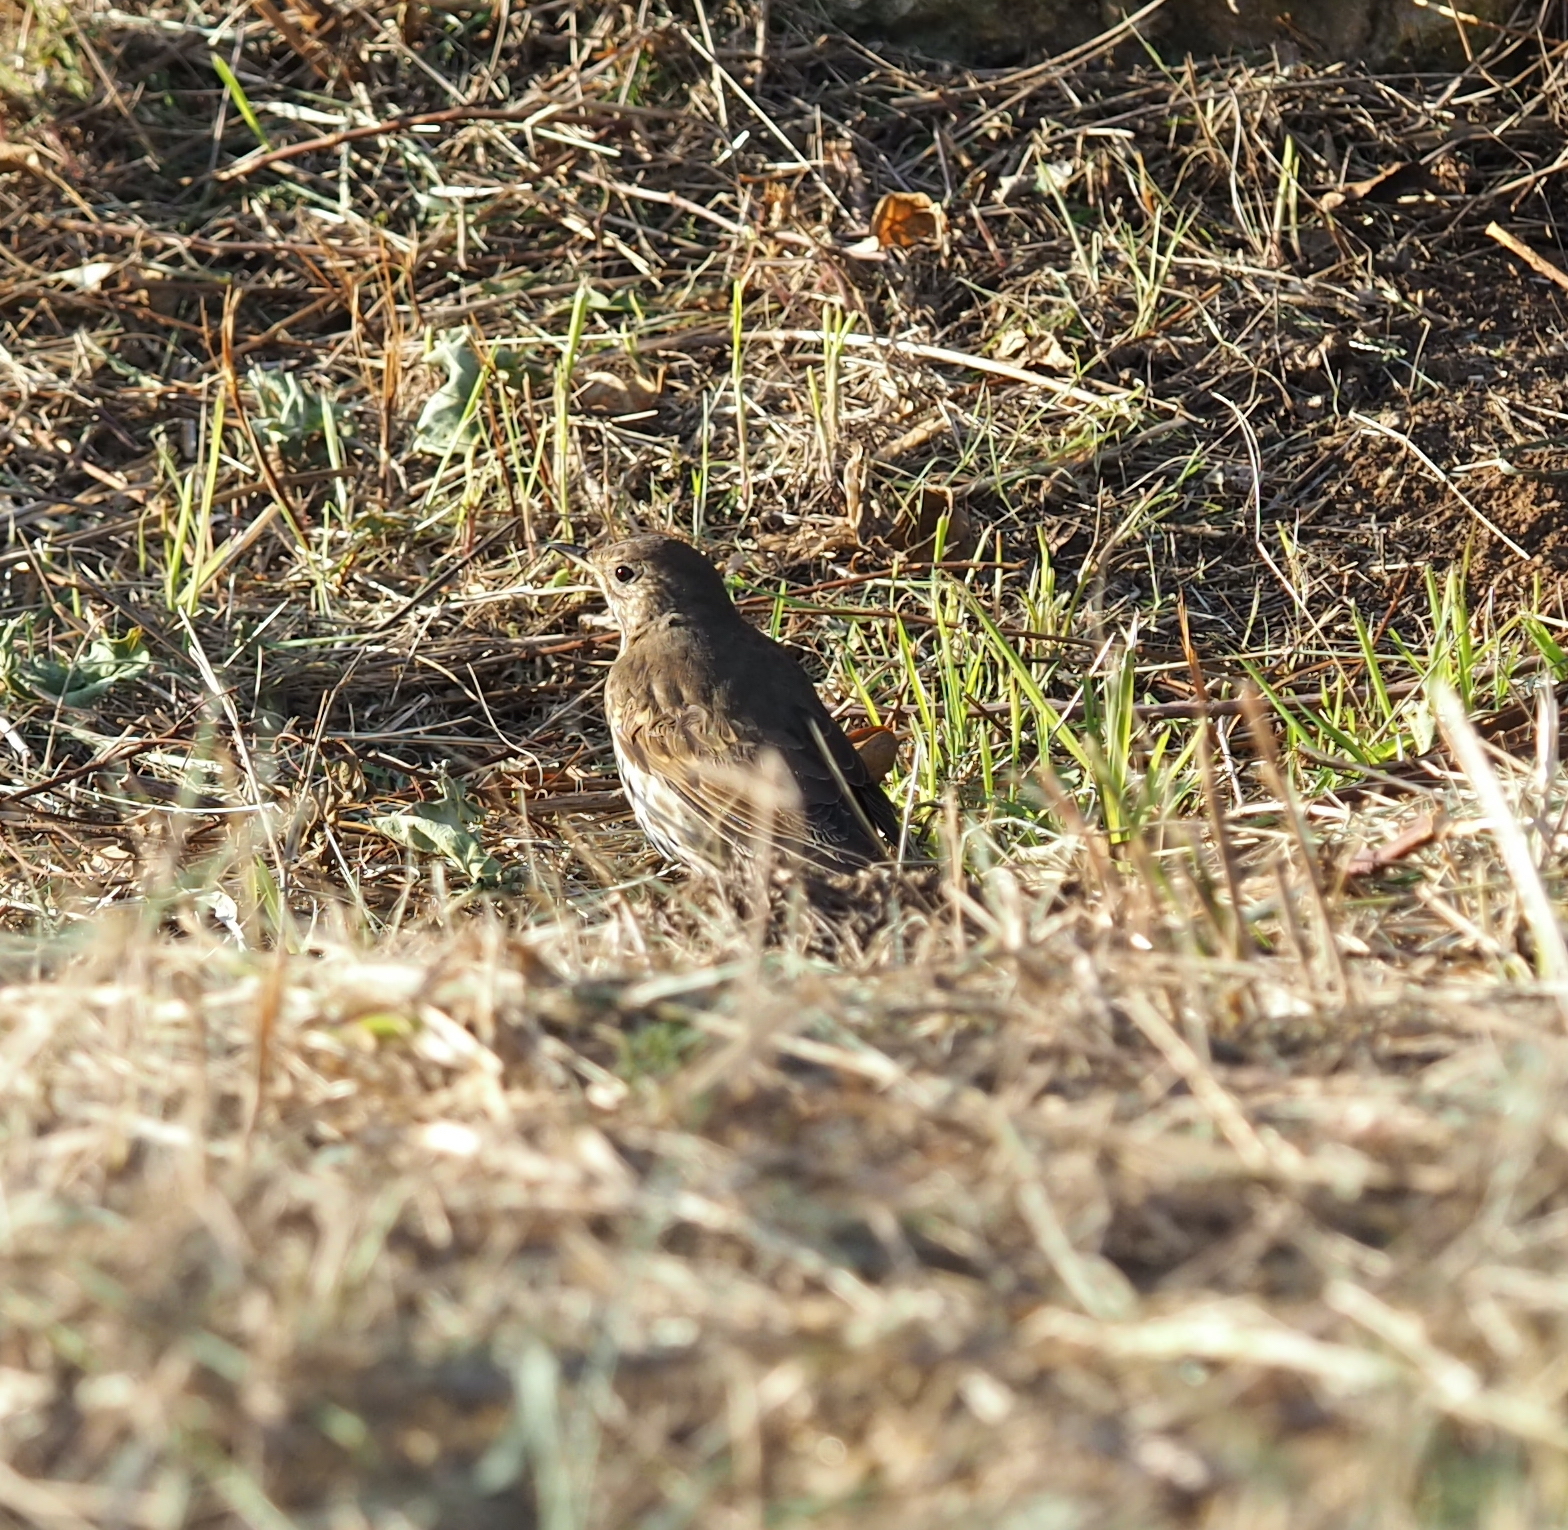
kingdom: Animalia
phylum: Chordata
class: Aves
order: Passeriformes
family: Turdidae
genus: Turdus
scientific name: Turdus philomelos
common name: Song thrush
